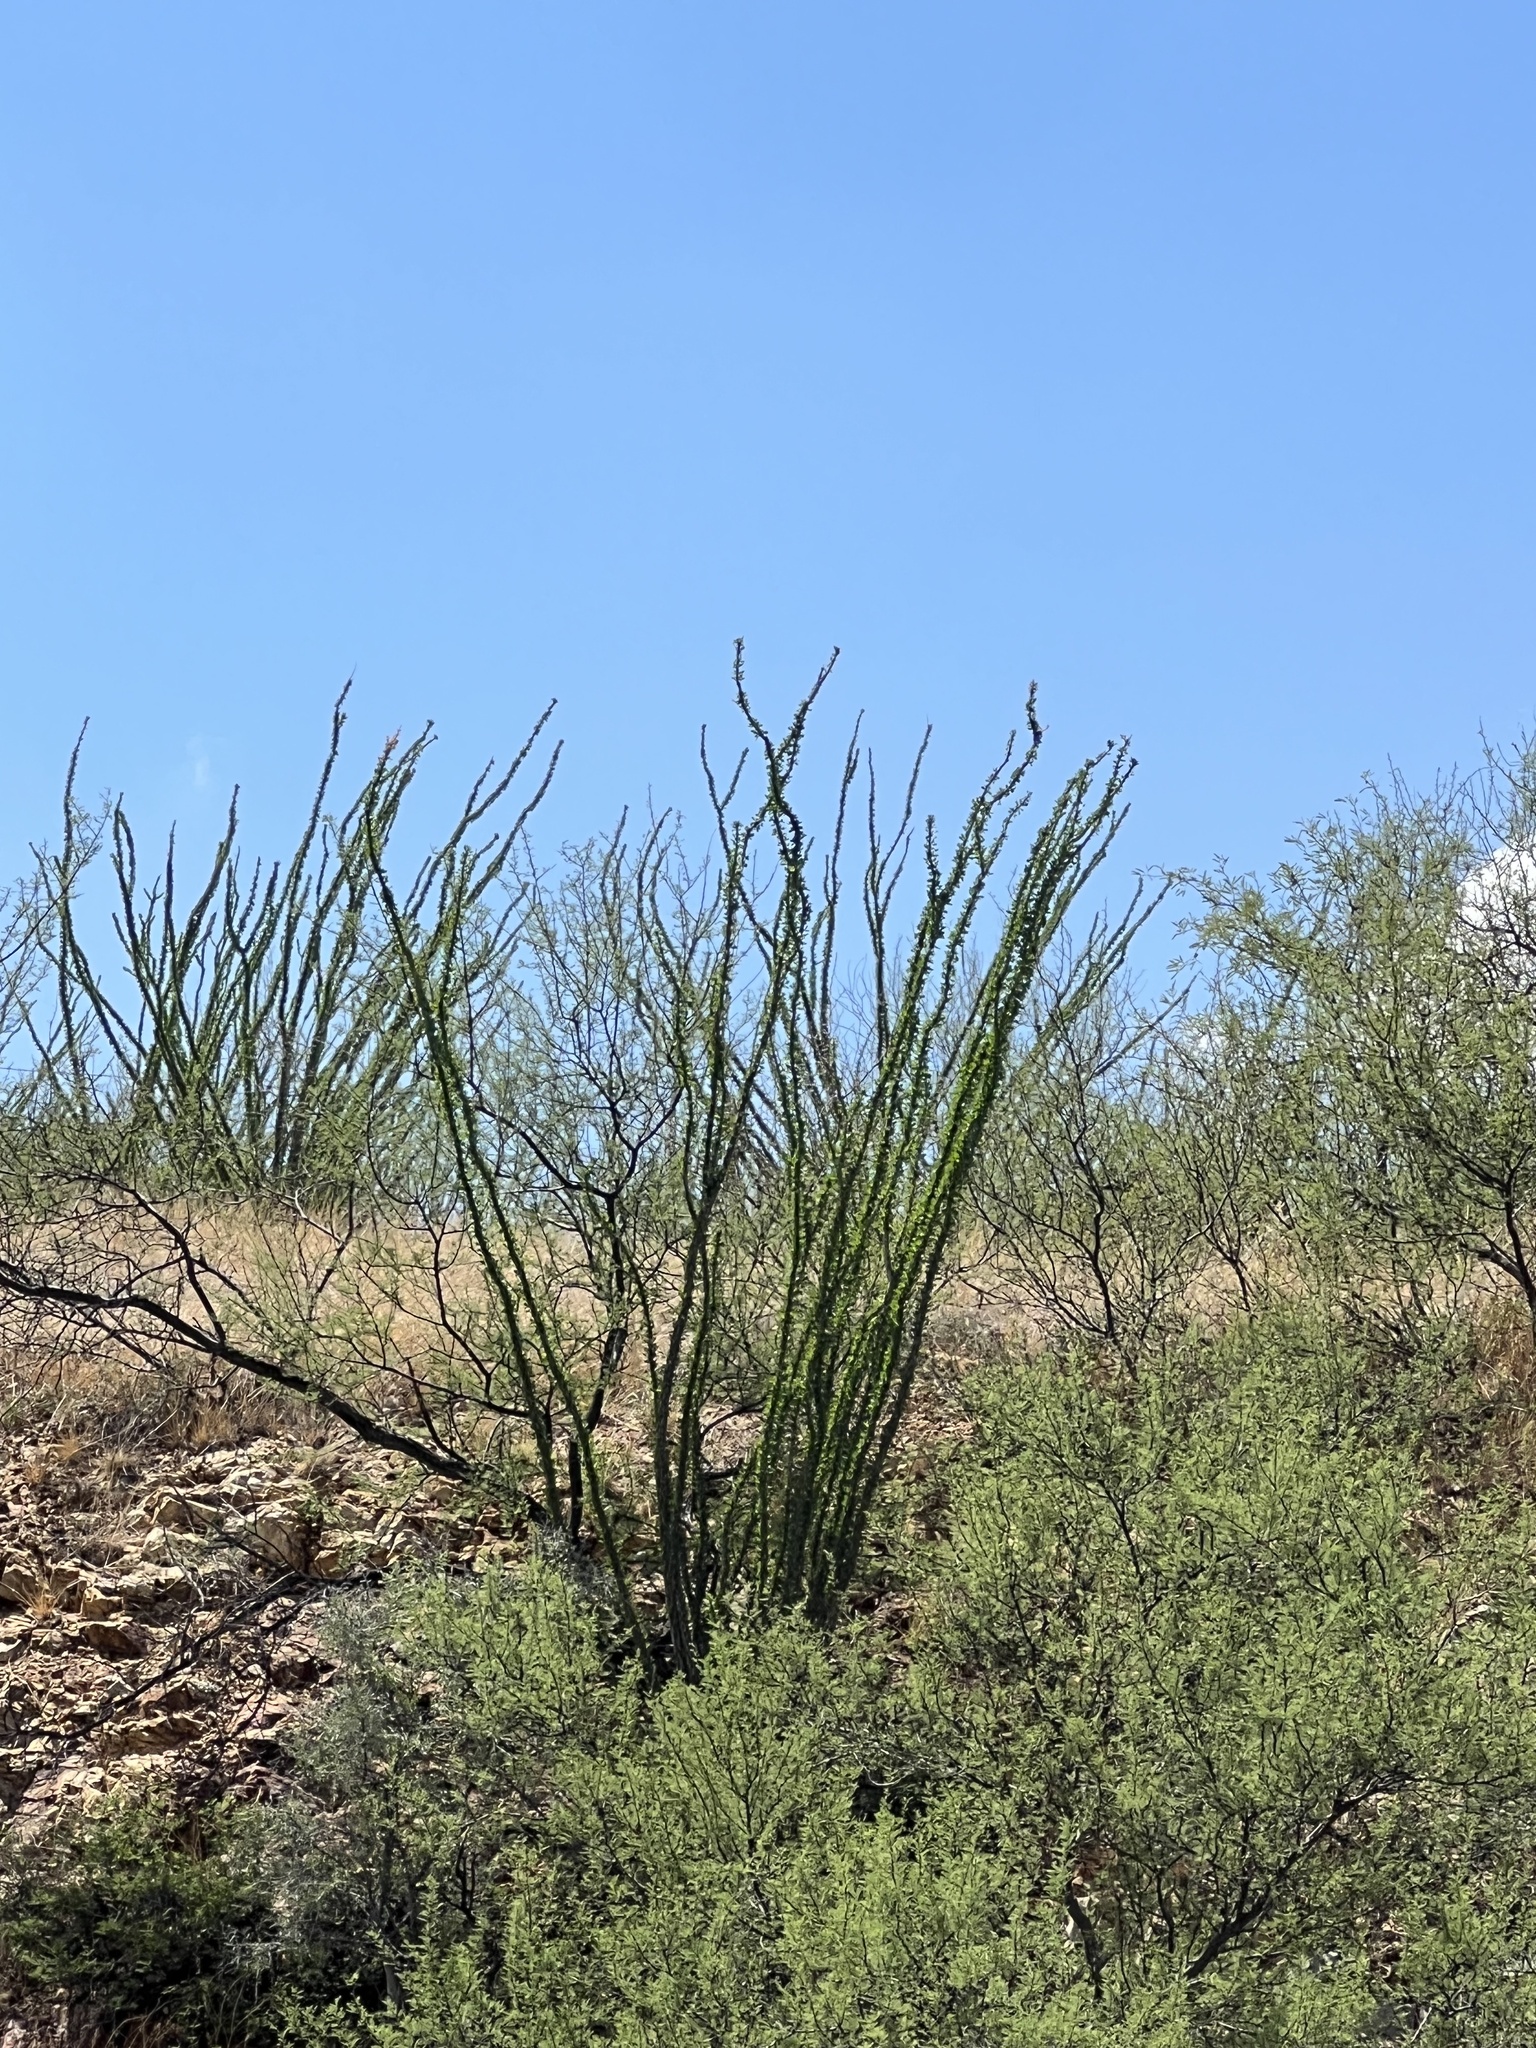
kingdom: Plantae
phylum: Tracheophyta
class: Magnoliopsida
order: Ericales
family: Fouquieriaceae
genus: Fouquieria
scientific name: Fouquieria splendens
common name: Vine-cactus
